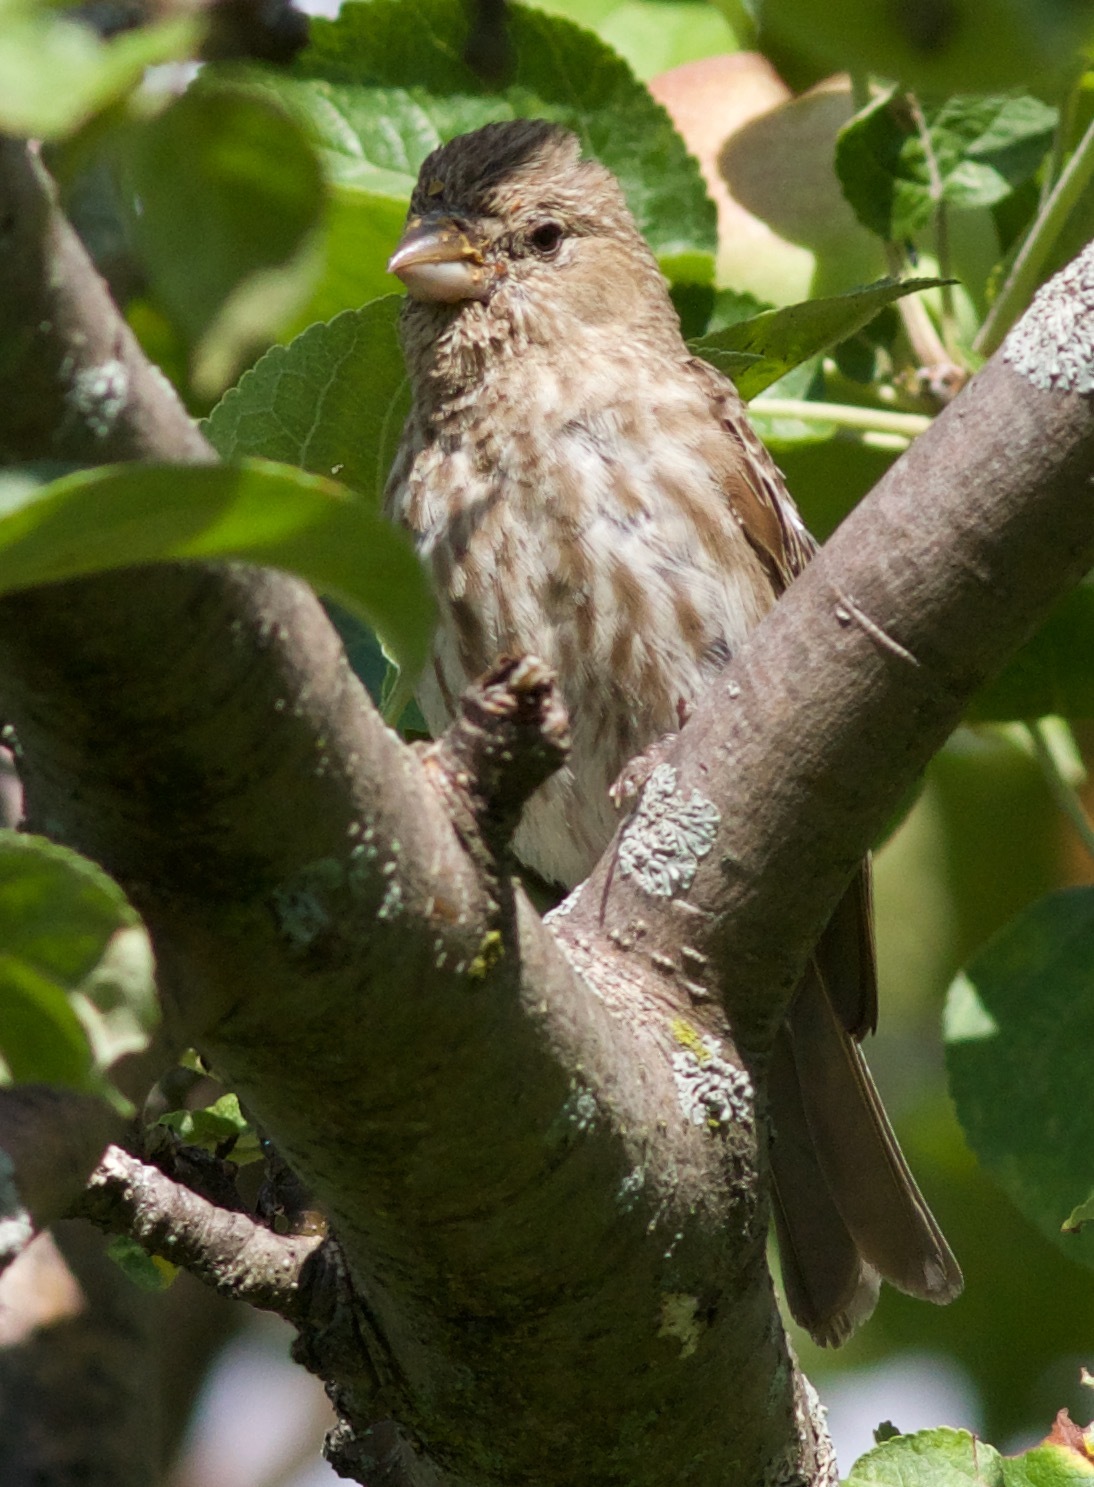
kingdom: Animalia
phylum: Chordata
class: Aves
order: Passeriformes
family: Fringillidae
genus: Haemorhous
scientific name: Haemorhous mexicanus
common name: House finch
